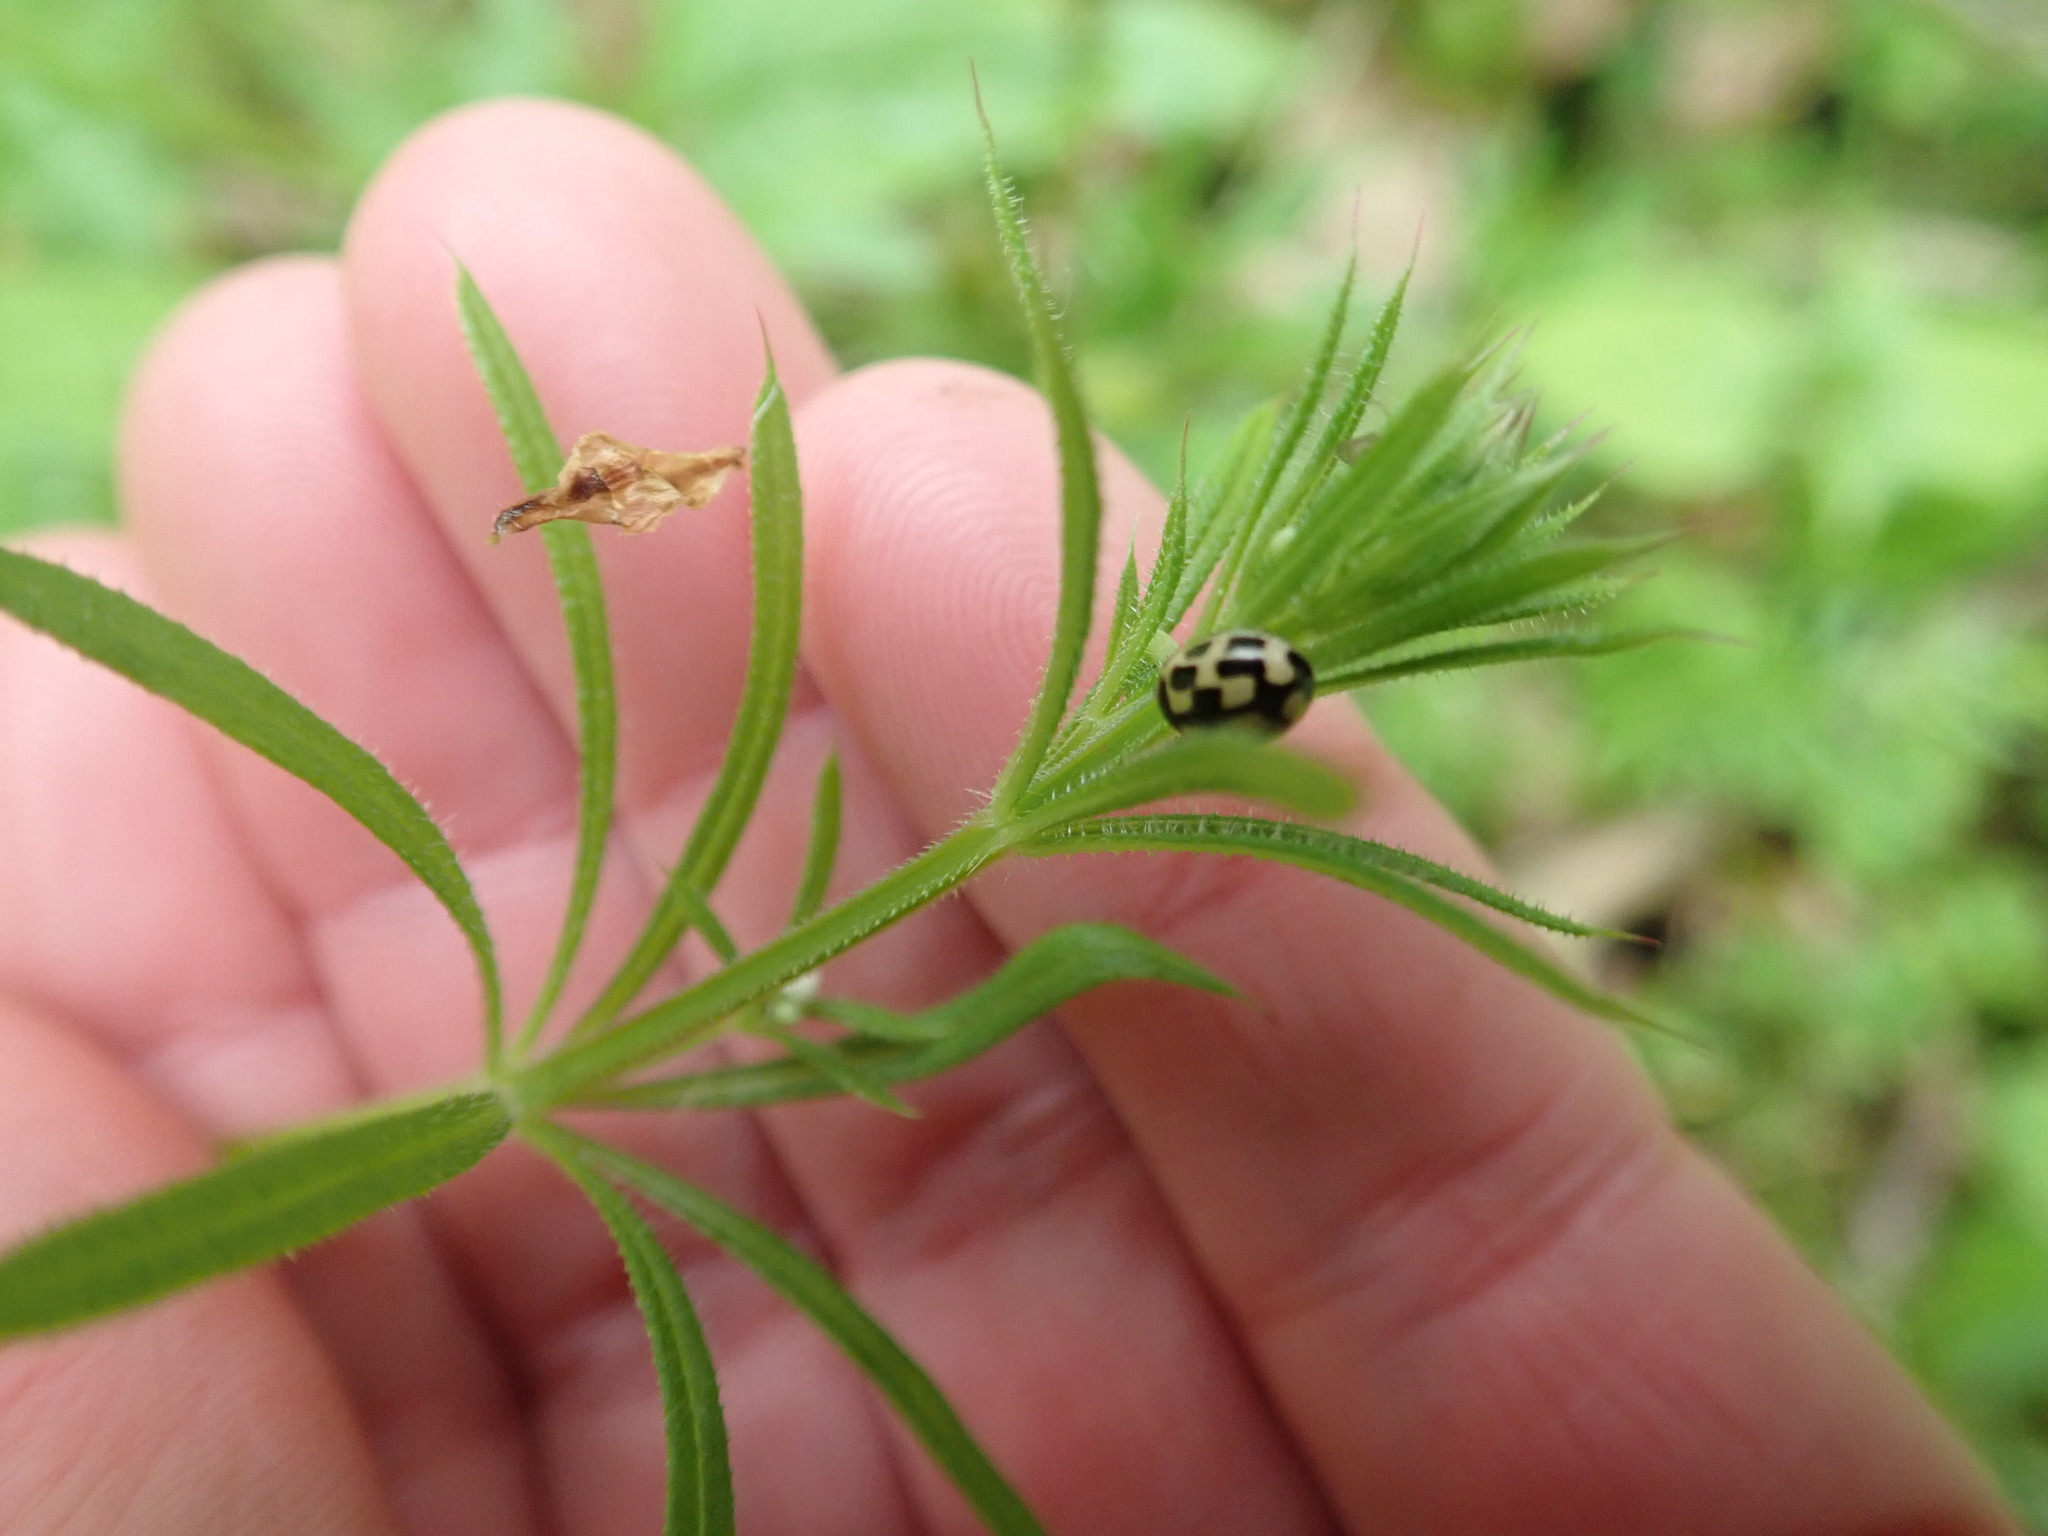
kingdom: Animalia
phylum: Arthropoda
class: Insecta
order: Coleoptera
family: Coccinellidae
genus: Propylaea
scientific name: Propylaea quatuordecimpunctata
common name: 14-spotted ladybird beetle
